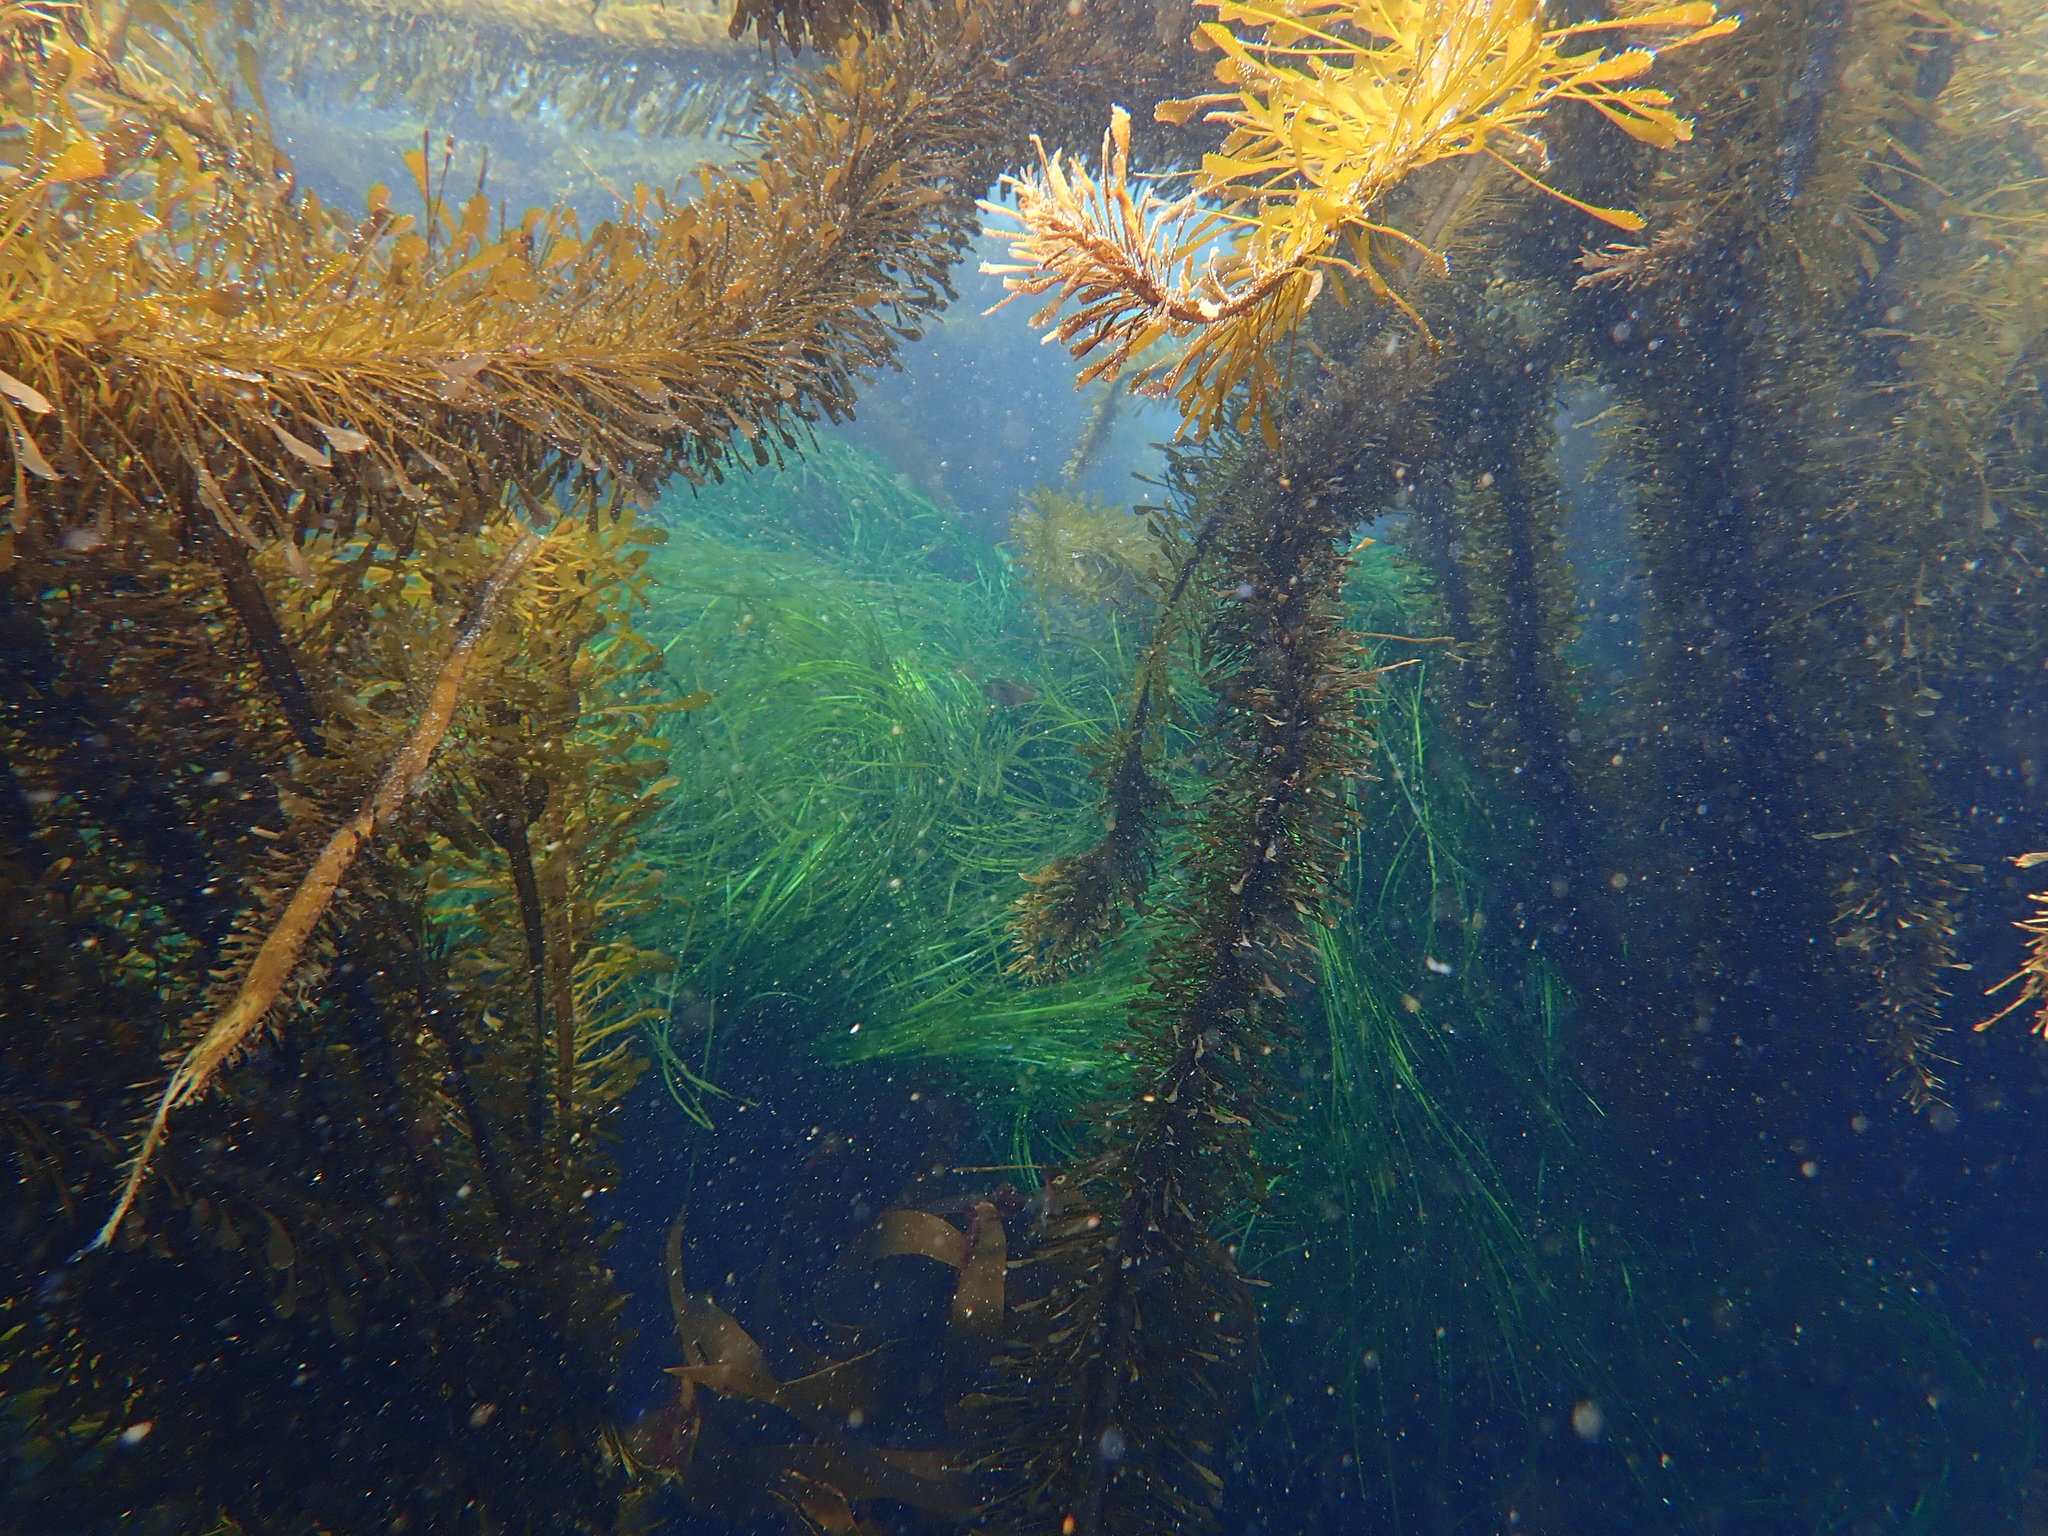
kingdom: Chromista
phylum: Ochrophyta
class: Phaeophyceae
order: Laminariales
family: Lessoniaceae
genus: Egregia
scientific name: Egregia menziesii
